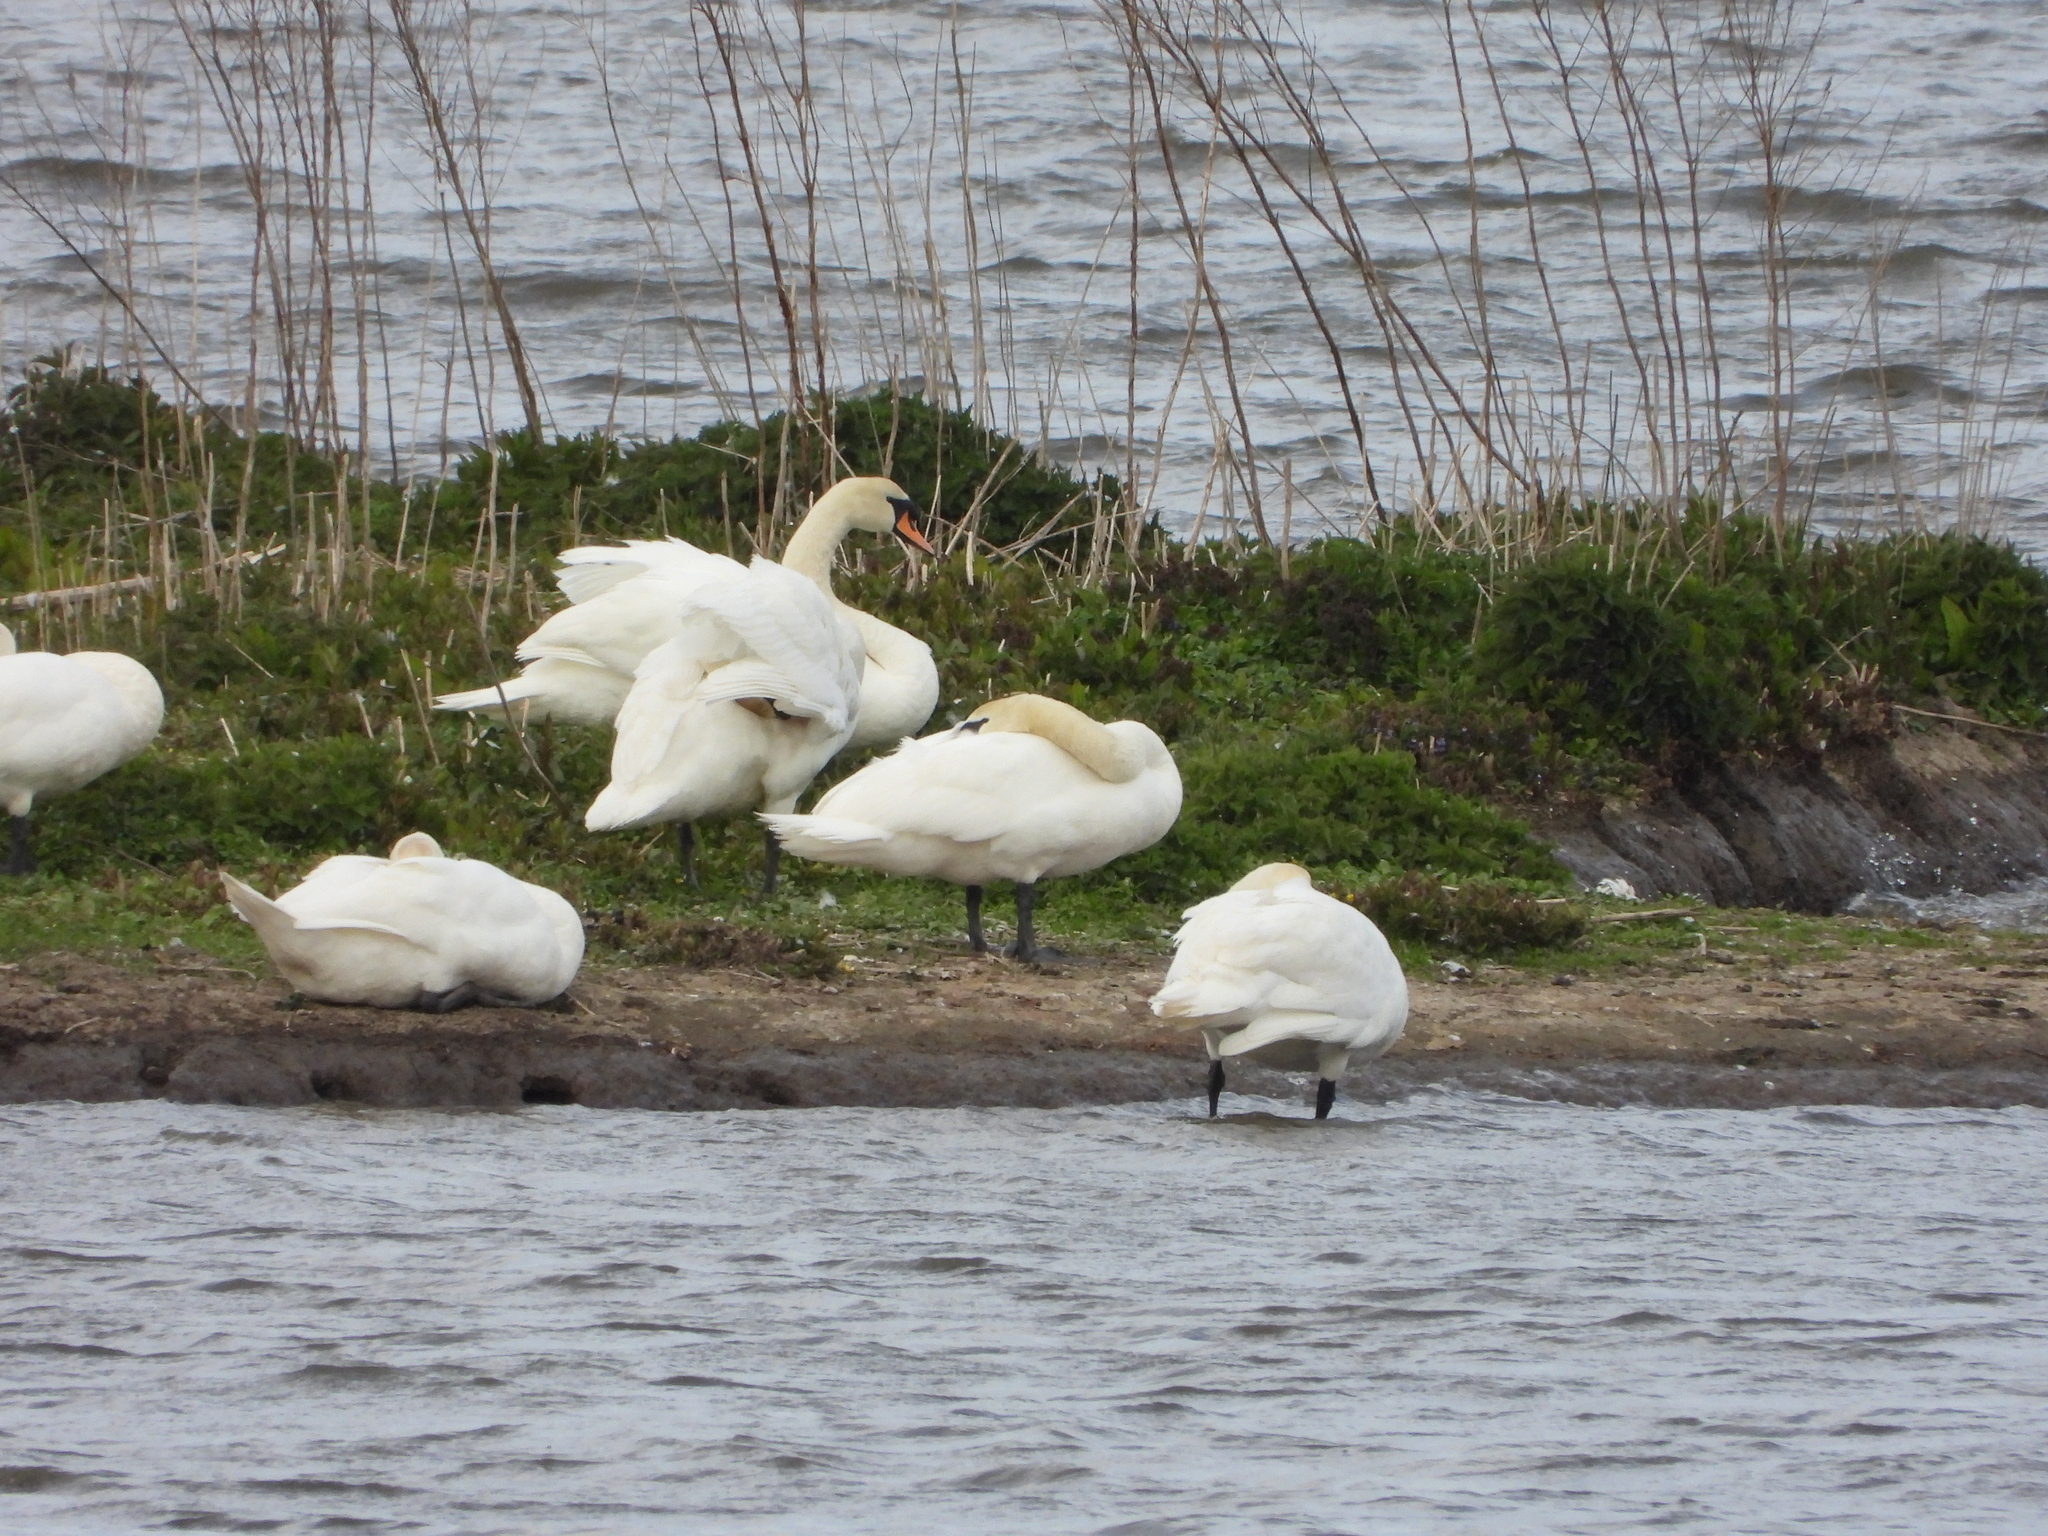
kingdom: Animalia
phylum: Chordata
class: Aves
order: Anseriformes
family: Anatidae
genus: Cygnus
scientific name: Cygnus olor
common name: Mute swan
